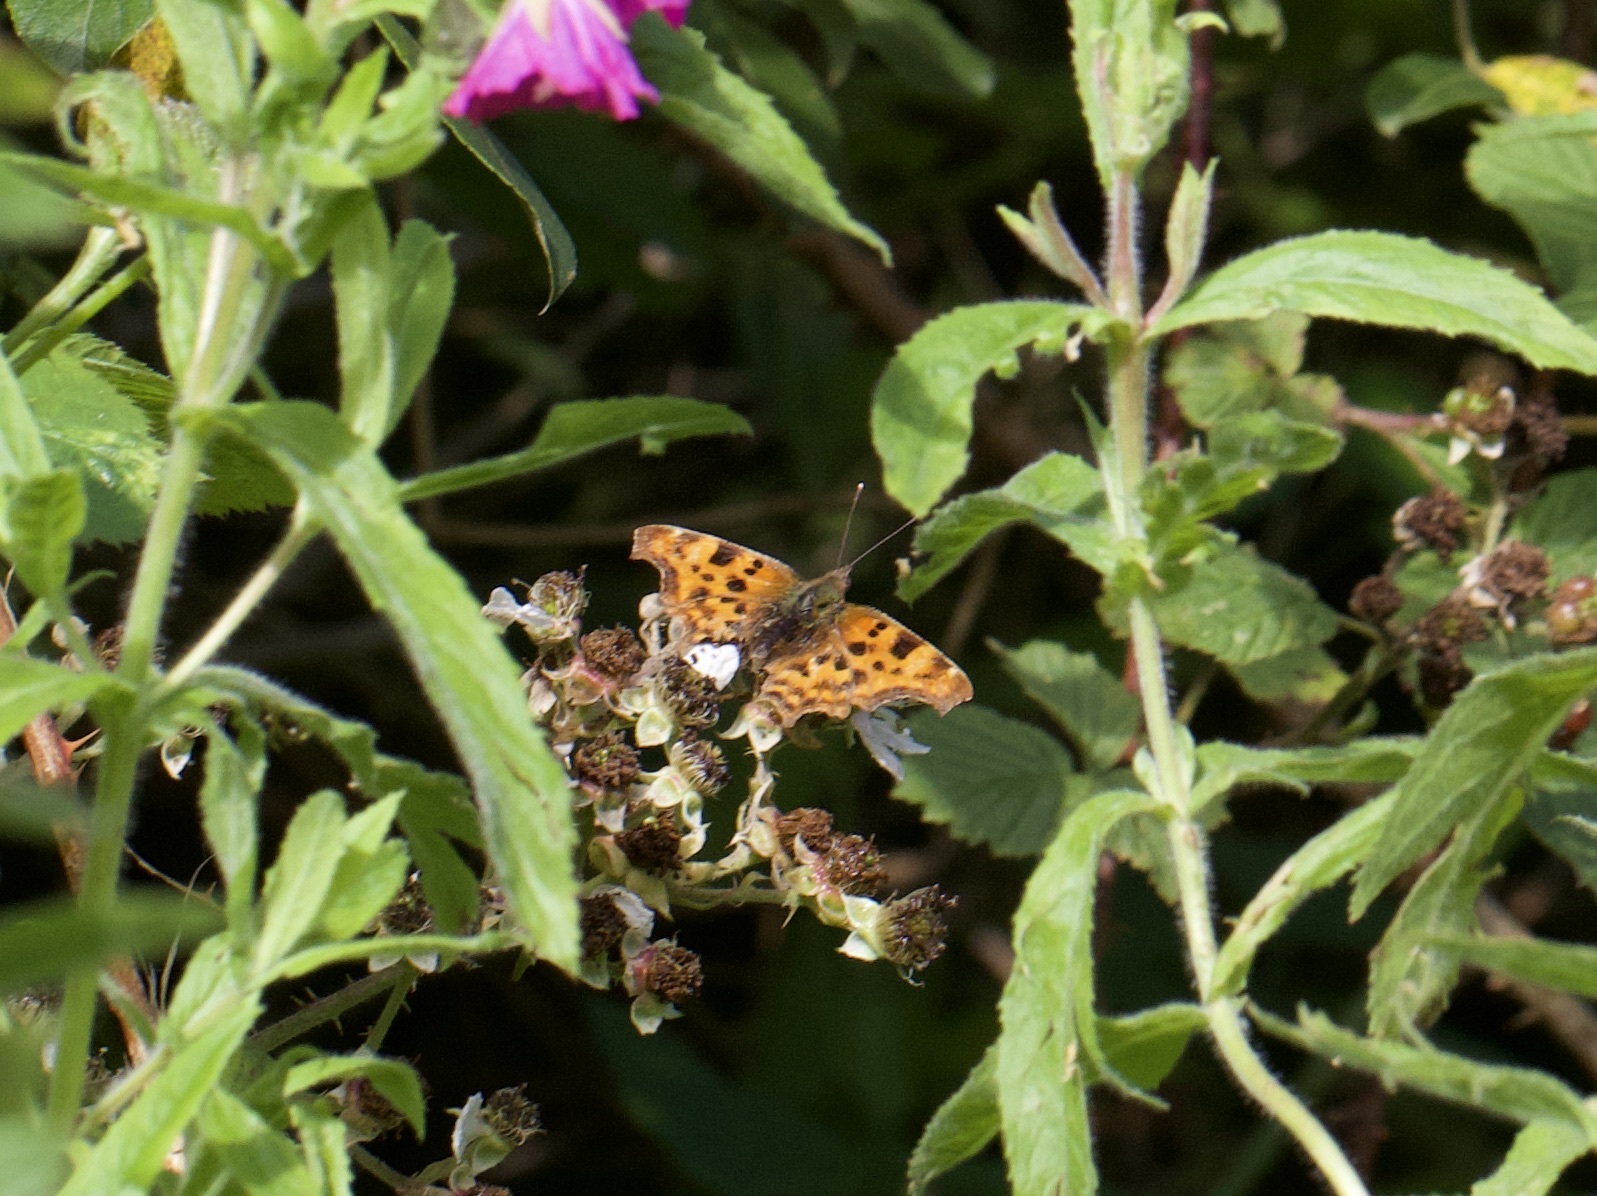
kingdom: Animalia
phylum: Arthropoda
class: Insecta
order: Lepidoptera
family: Nymphalidae
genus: Polygonia
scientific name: Polygonia c-album
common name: Comma
